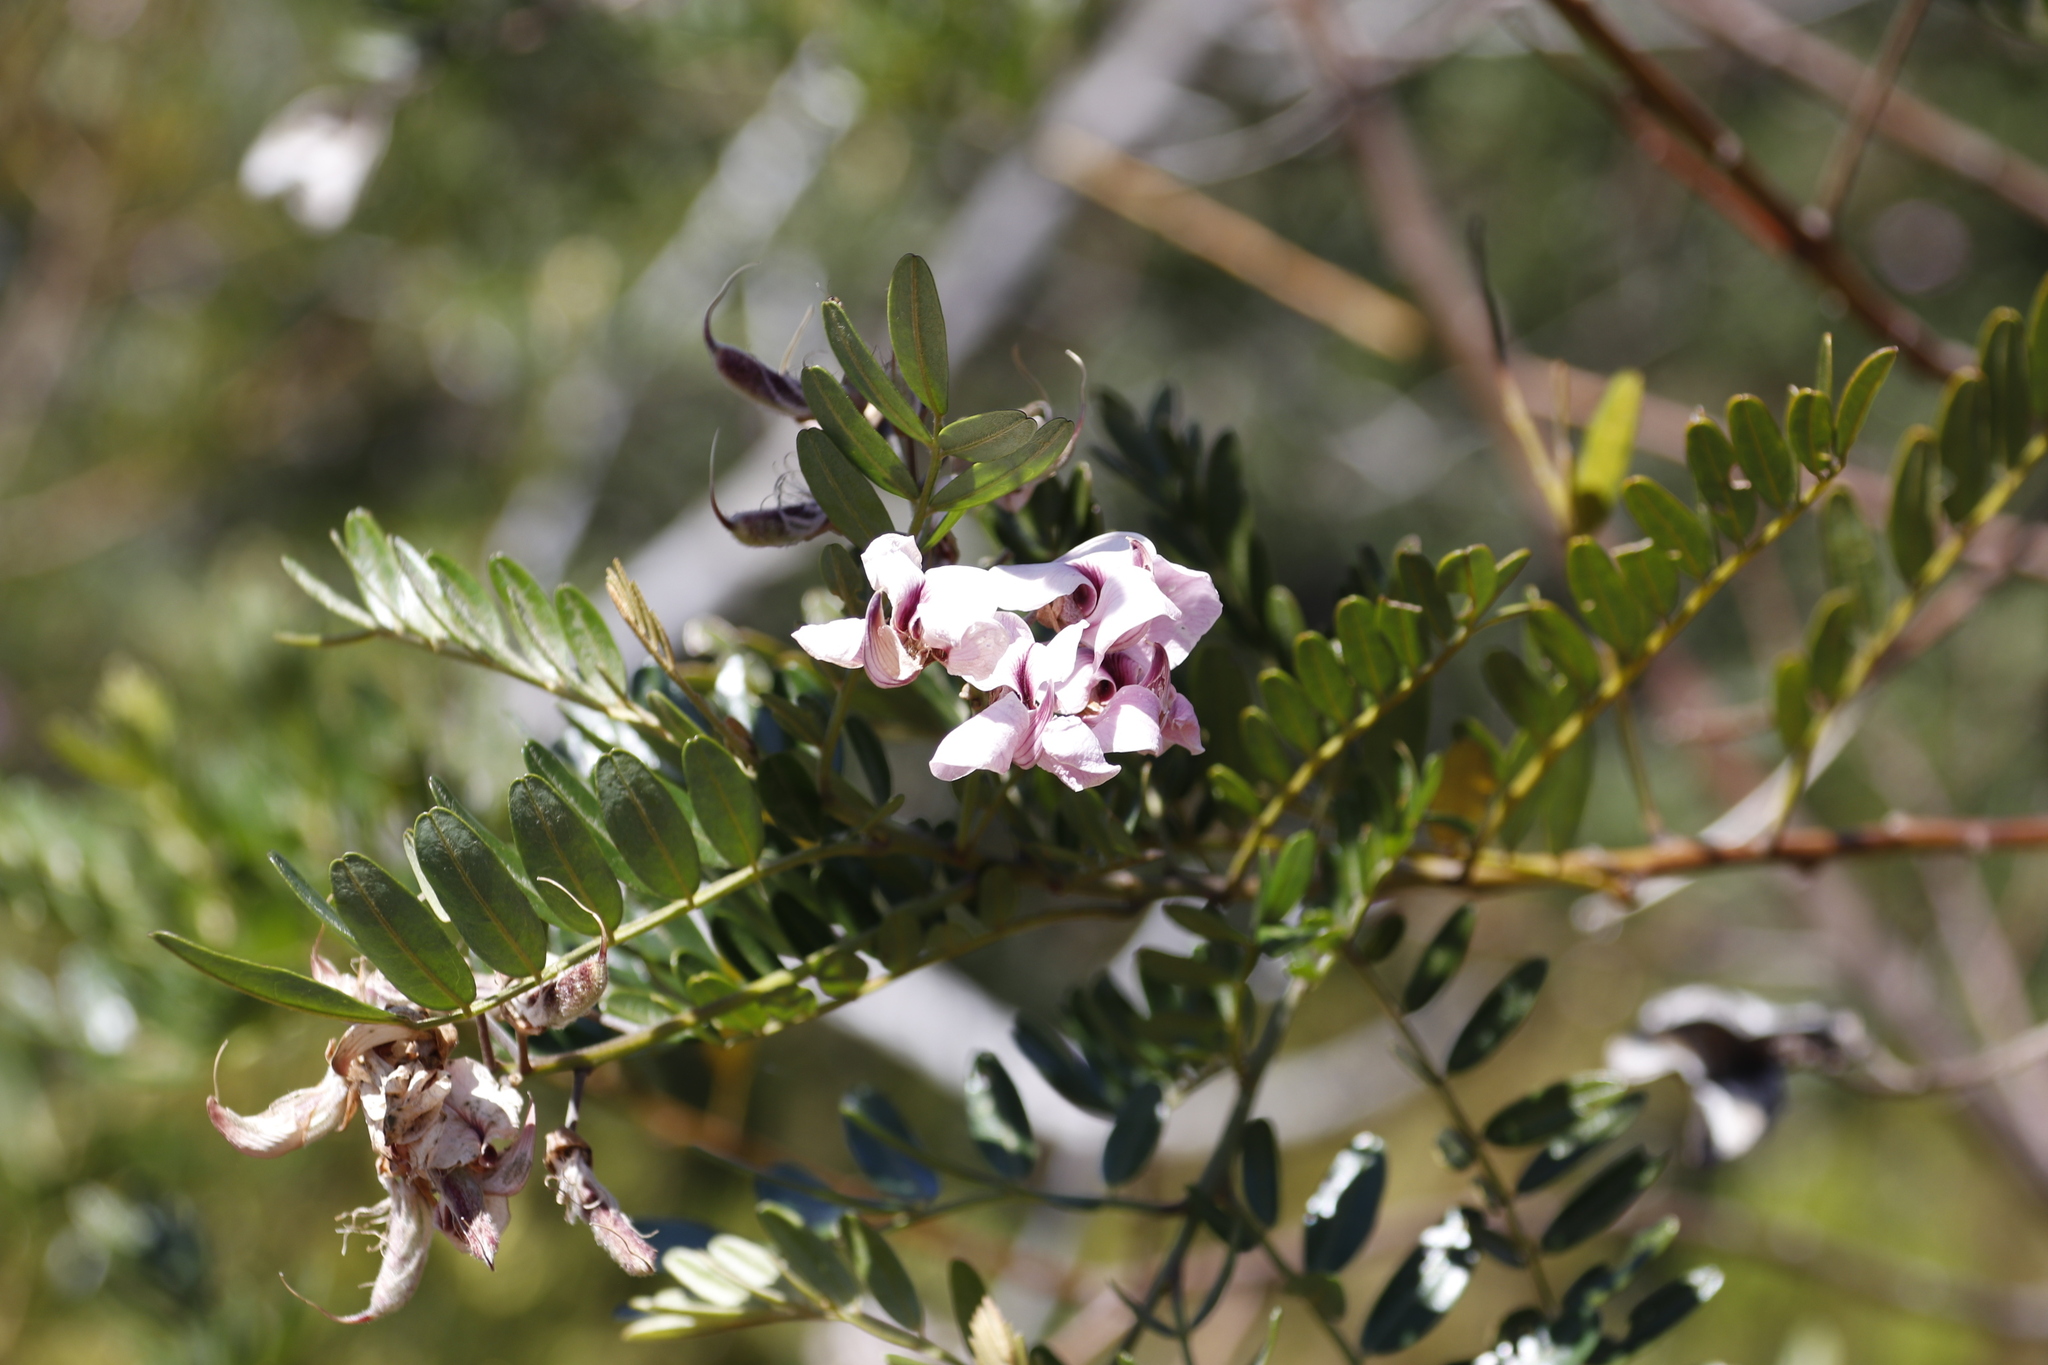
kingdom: Plantae
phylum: Tracheophyta
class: Magnoliopsida
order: Fabales
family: Fabaceae
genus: Virgilia
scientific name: Virgilia oroboides
